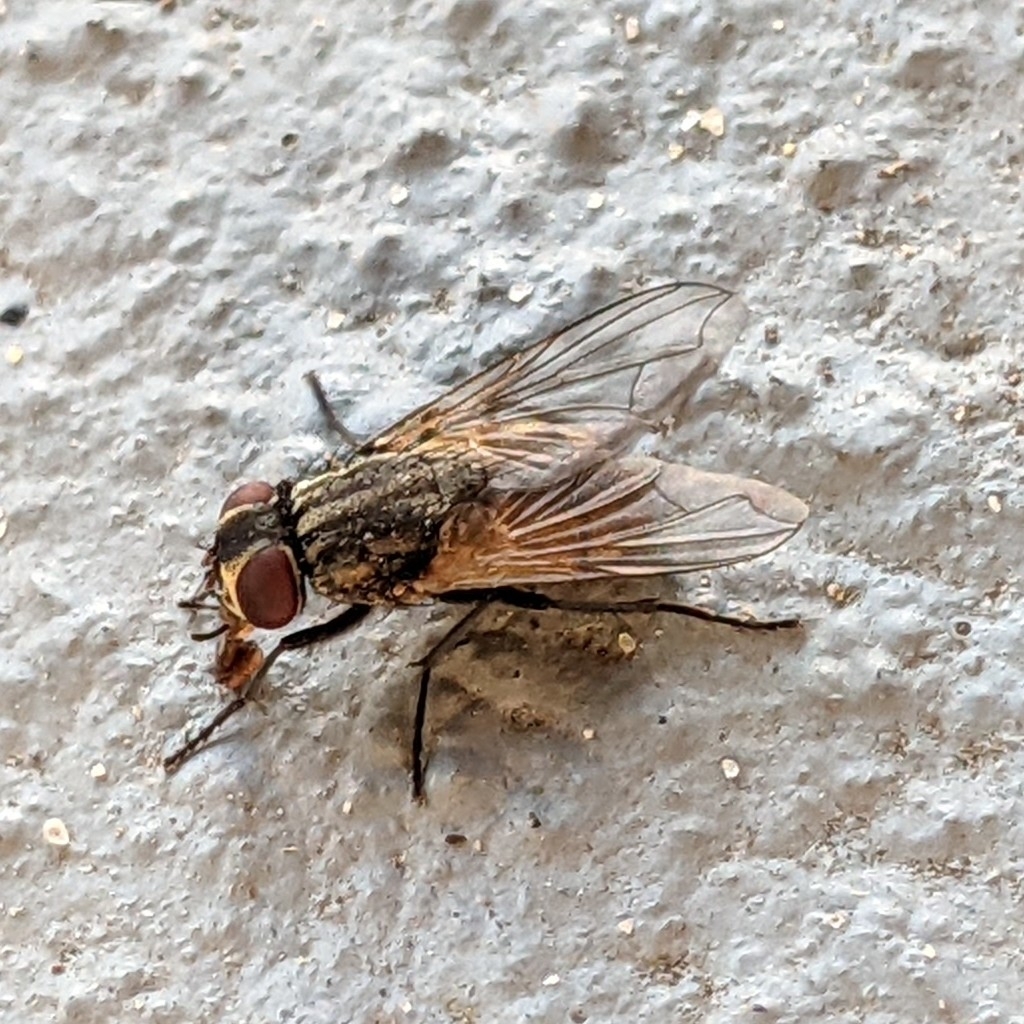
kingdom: Animalia
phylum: Arthropoda
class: Insecta
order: Diptera
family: Muscidae
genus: Musca
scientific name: Musca domestica
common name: House fly
